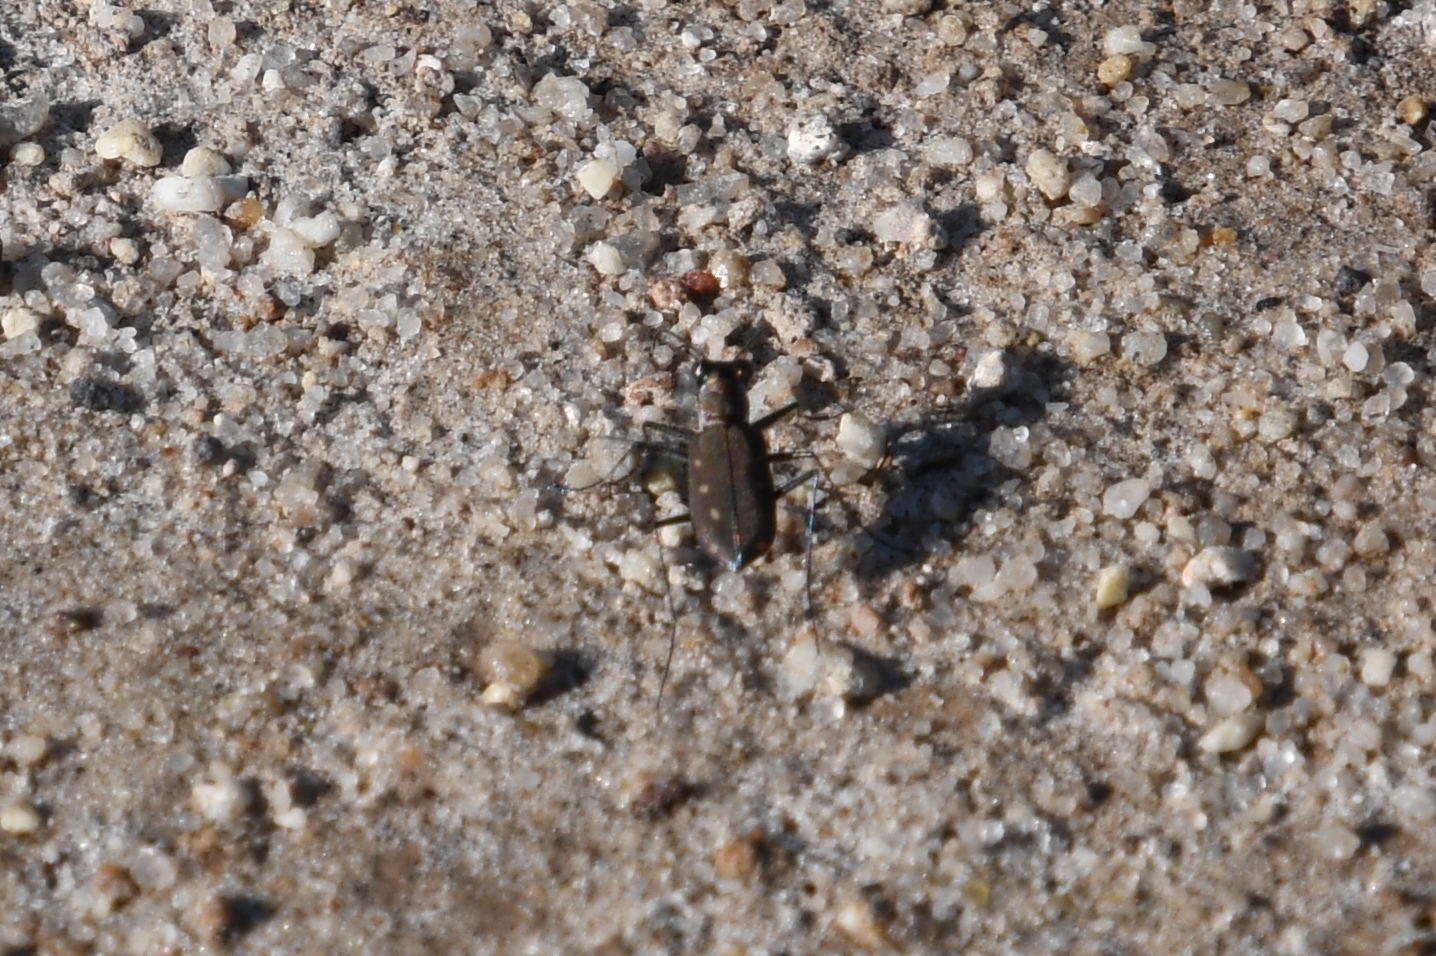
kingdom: Animalia
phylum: Arthropoda
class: Insecta
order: Coleoptera
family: Carabidae
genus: Cicindela
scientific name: Cicindela ocellata
